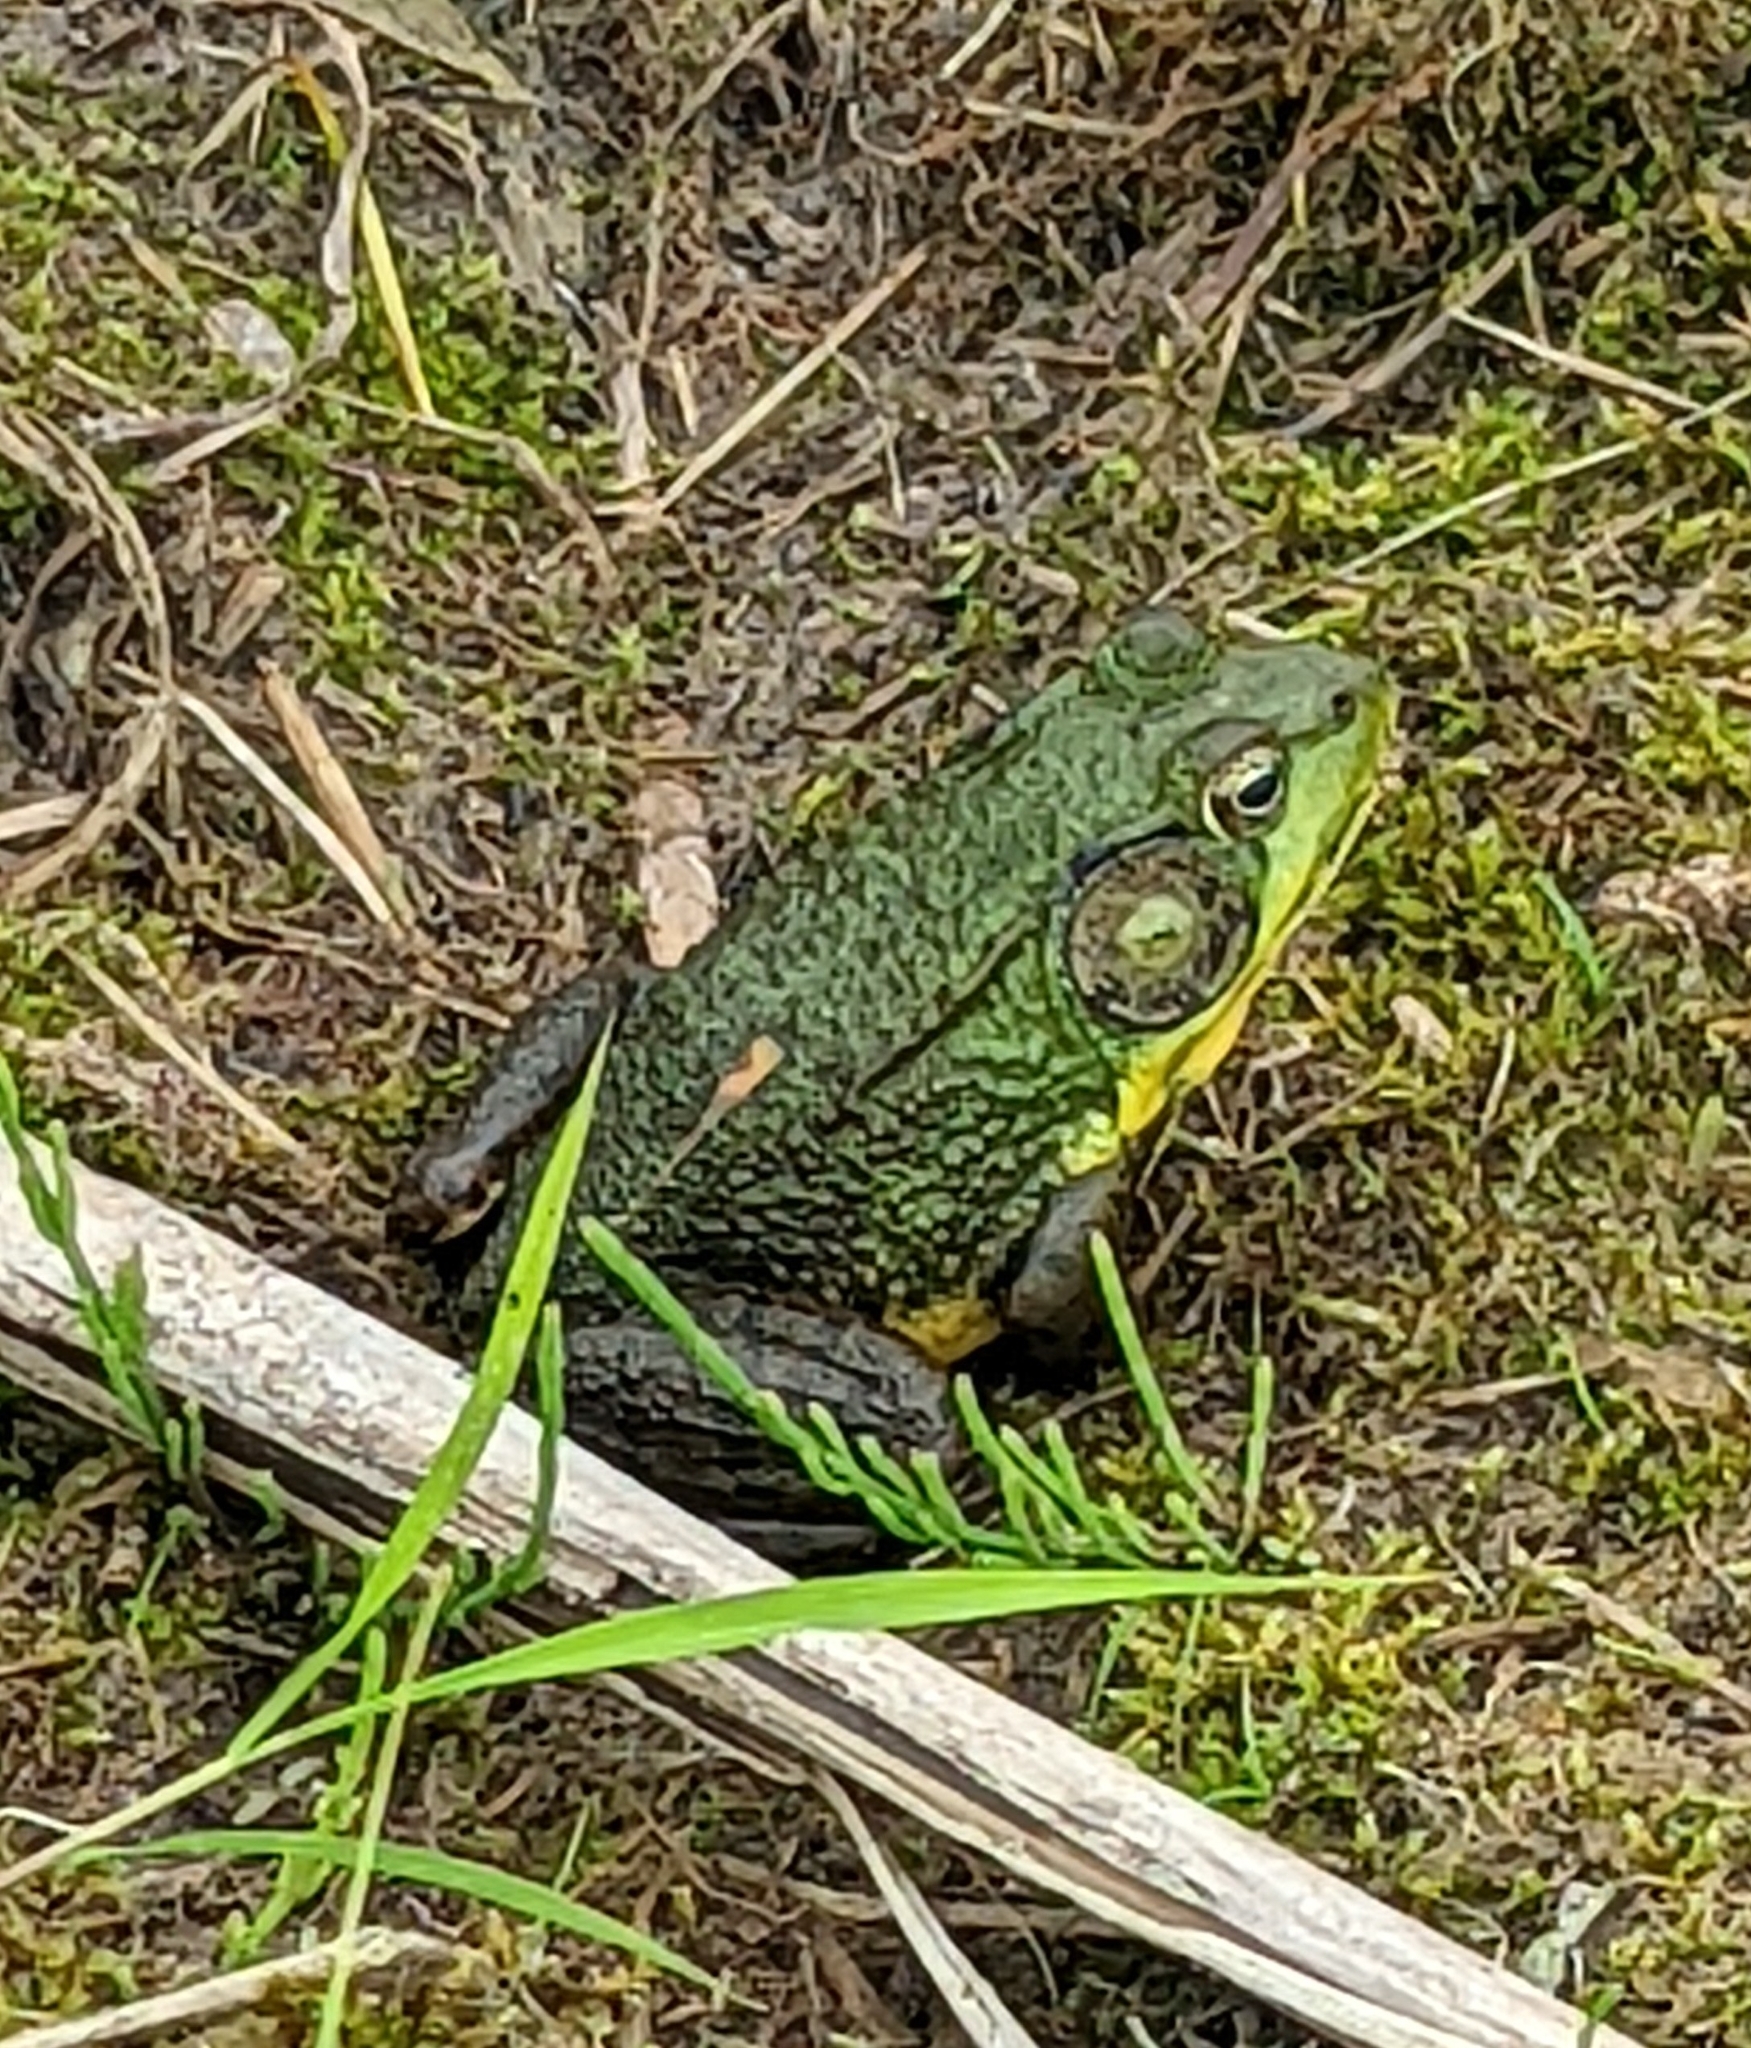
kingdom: Animalia
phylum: Chordata
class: Amphibia
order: Anura
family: Ranidae
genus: Lithobates
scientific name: Lithobates clamitans
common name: Green frog
